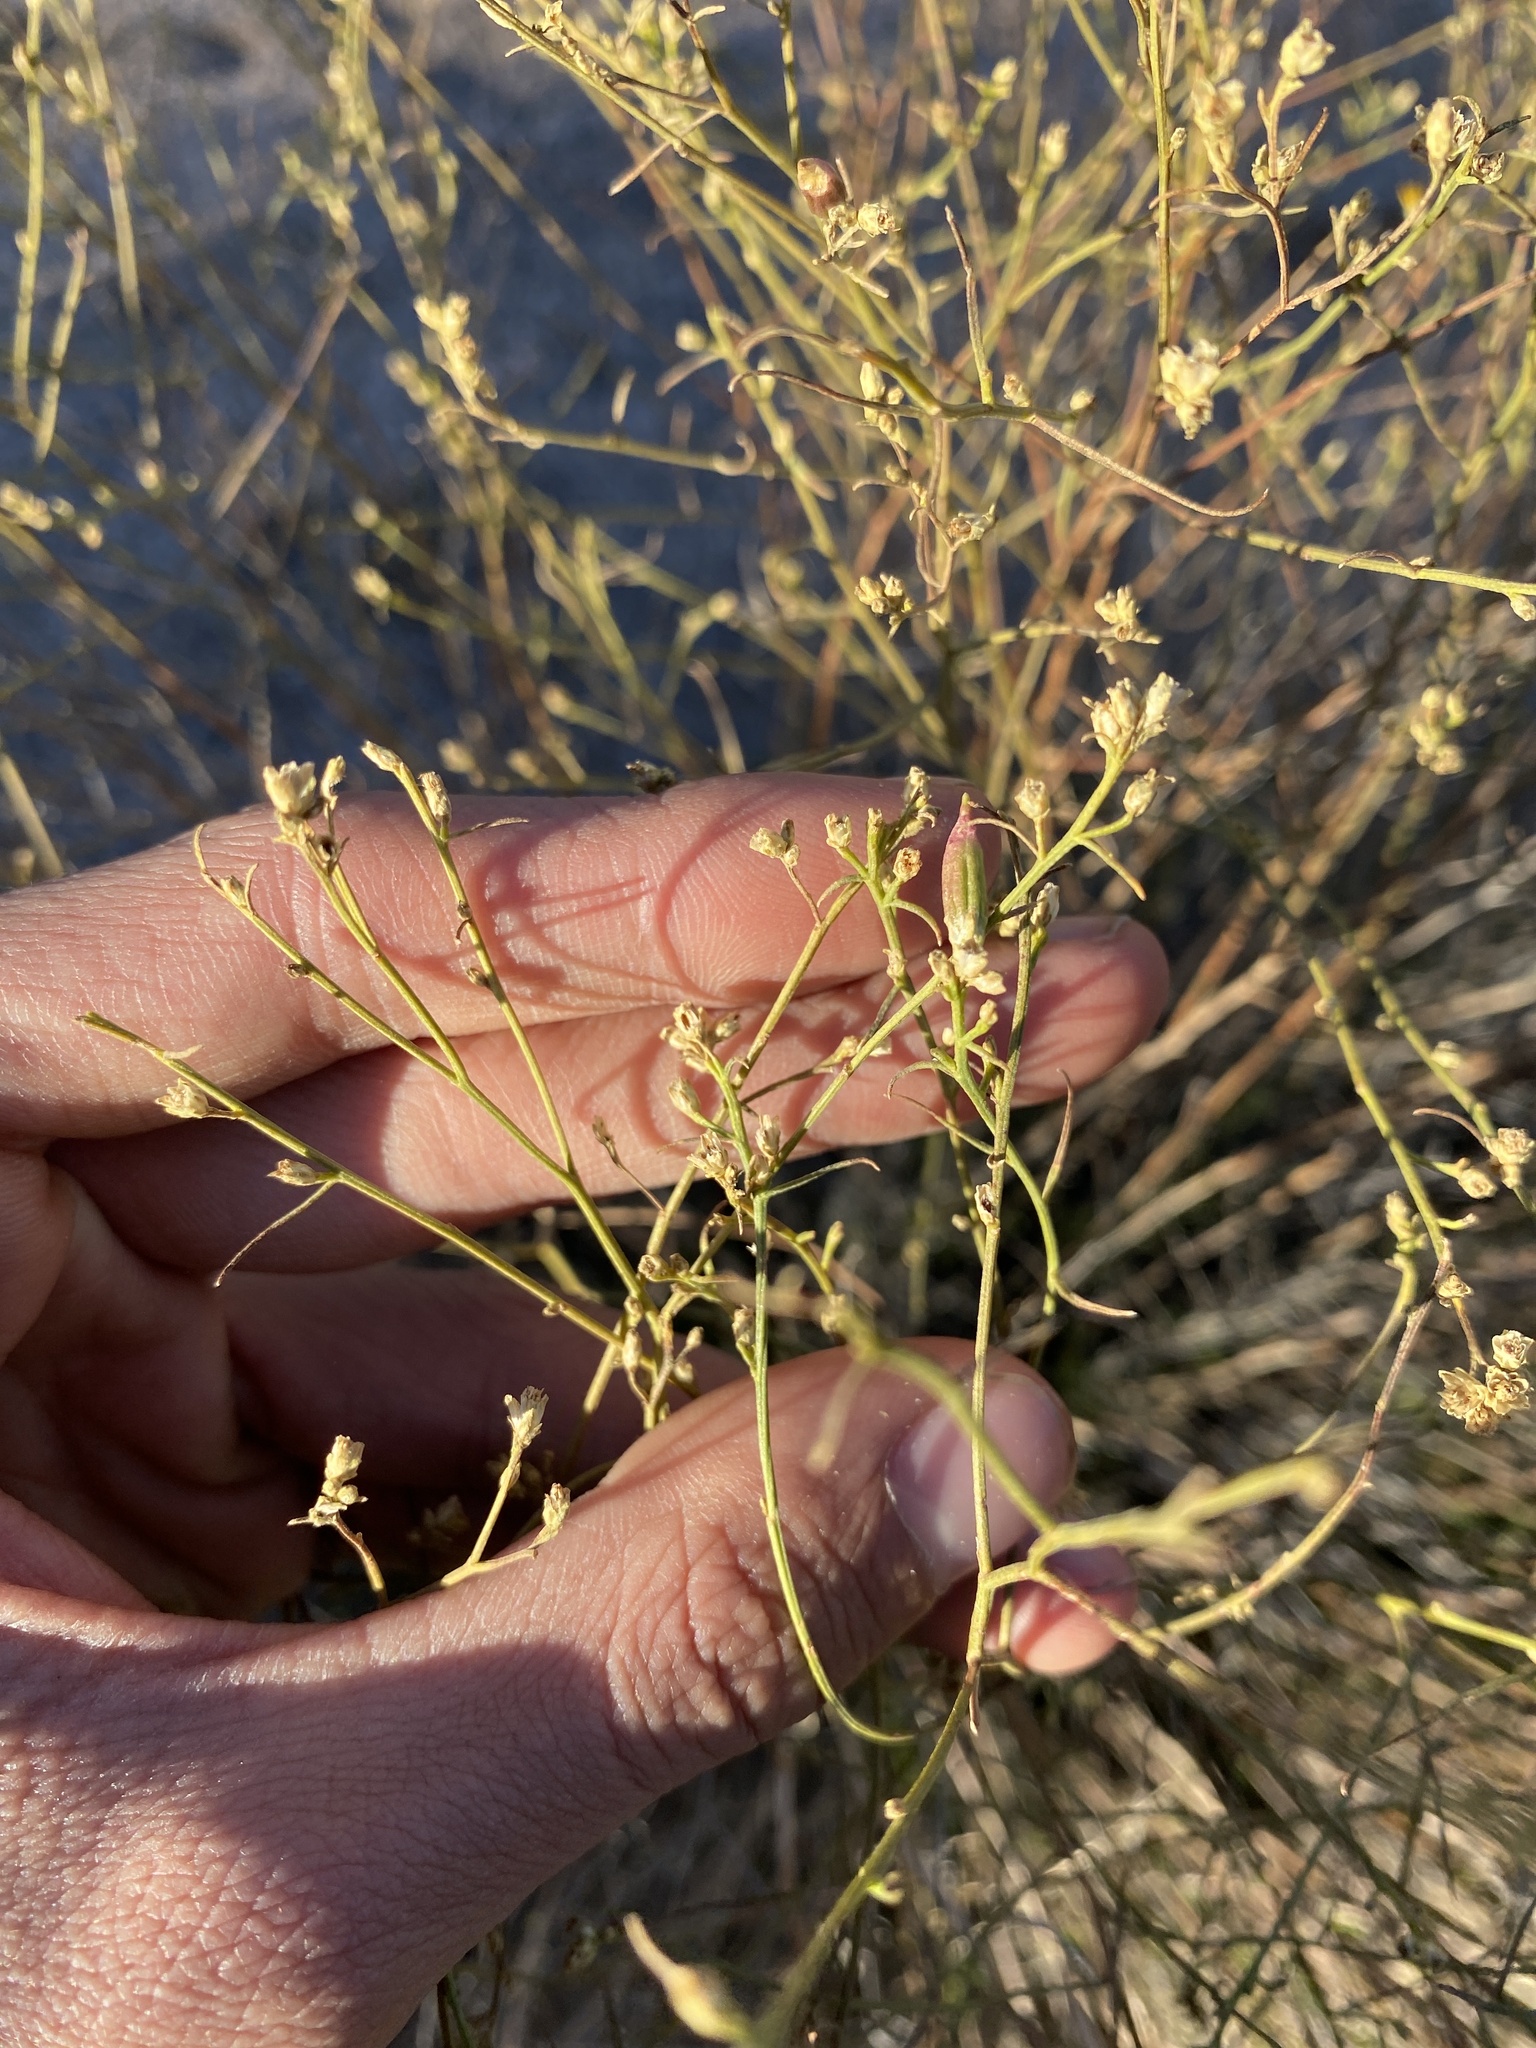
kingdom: Plantae
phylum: Tracheophyta
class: Magnoliopsida
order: Asterales
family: Asteraceae
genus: Gutierrezia
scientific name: Gutierrezia sarothrae
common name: Broom snakeweed
